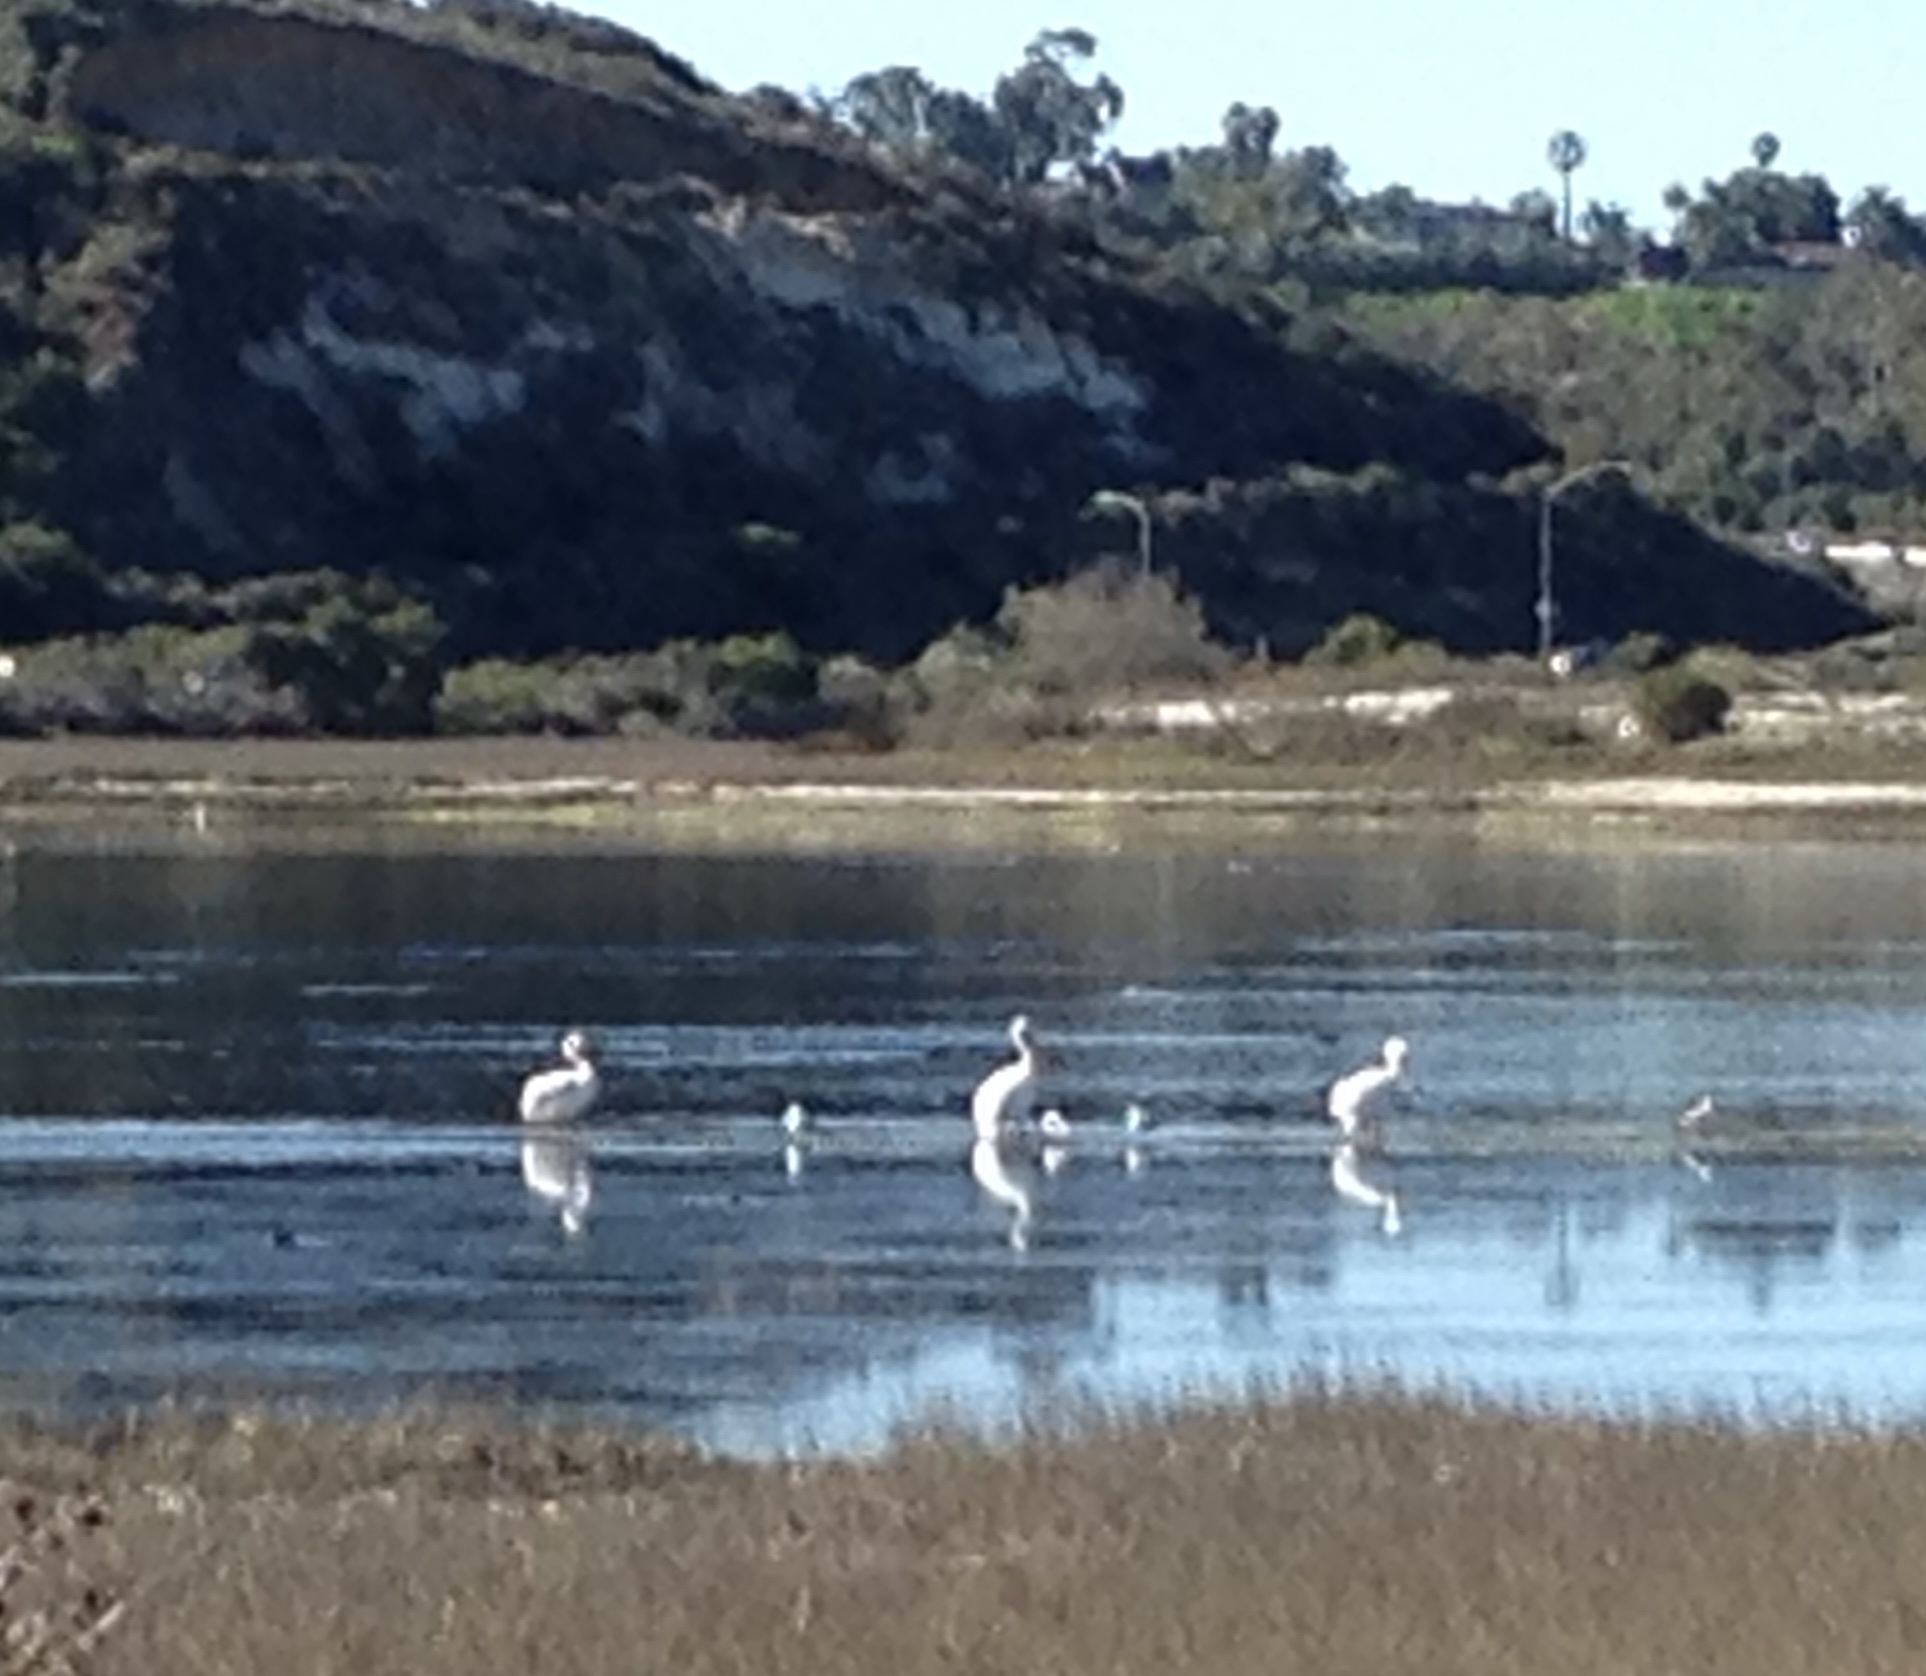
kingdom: Animalia
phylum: Chordata
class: Aves
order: Pelecaniformes
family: Pelecanidae
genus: Pelecanus
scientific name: Pelecanus erythrorhynchos
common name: American white pelican
